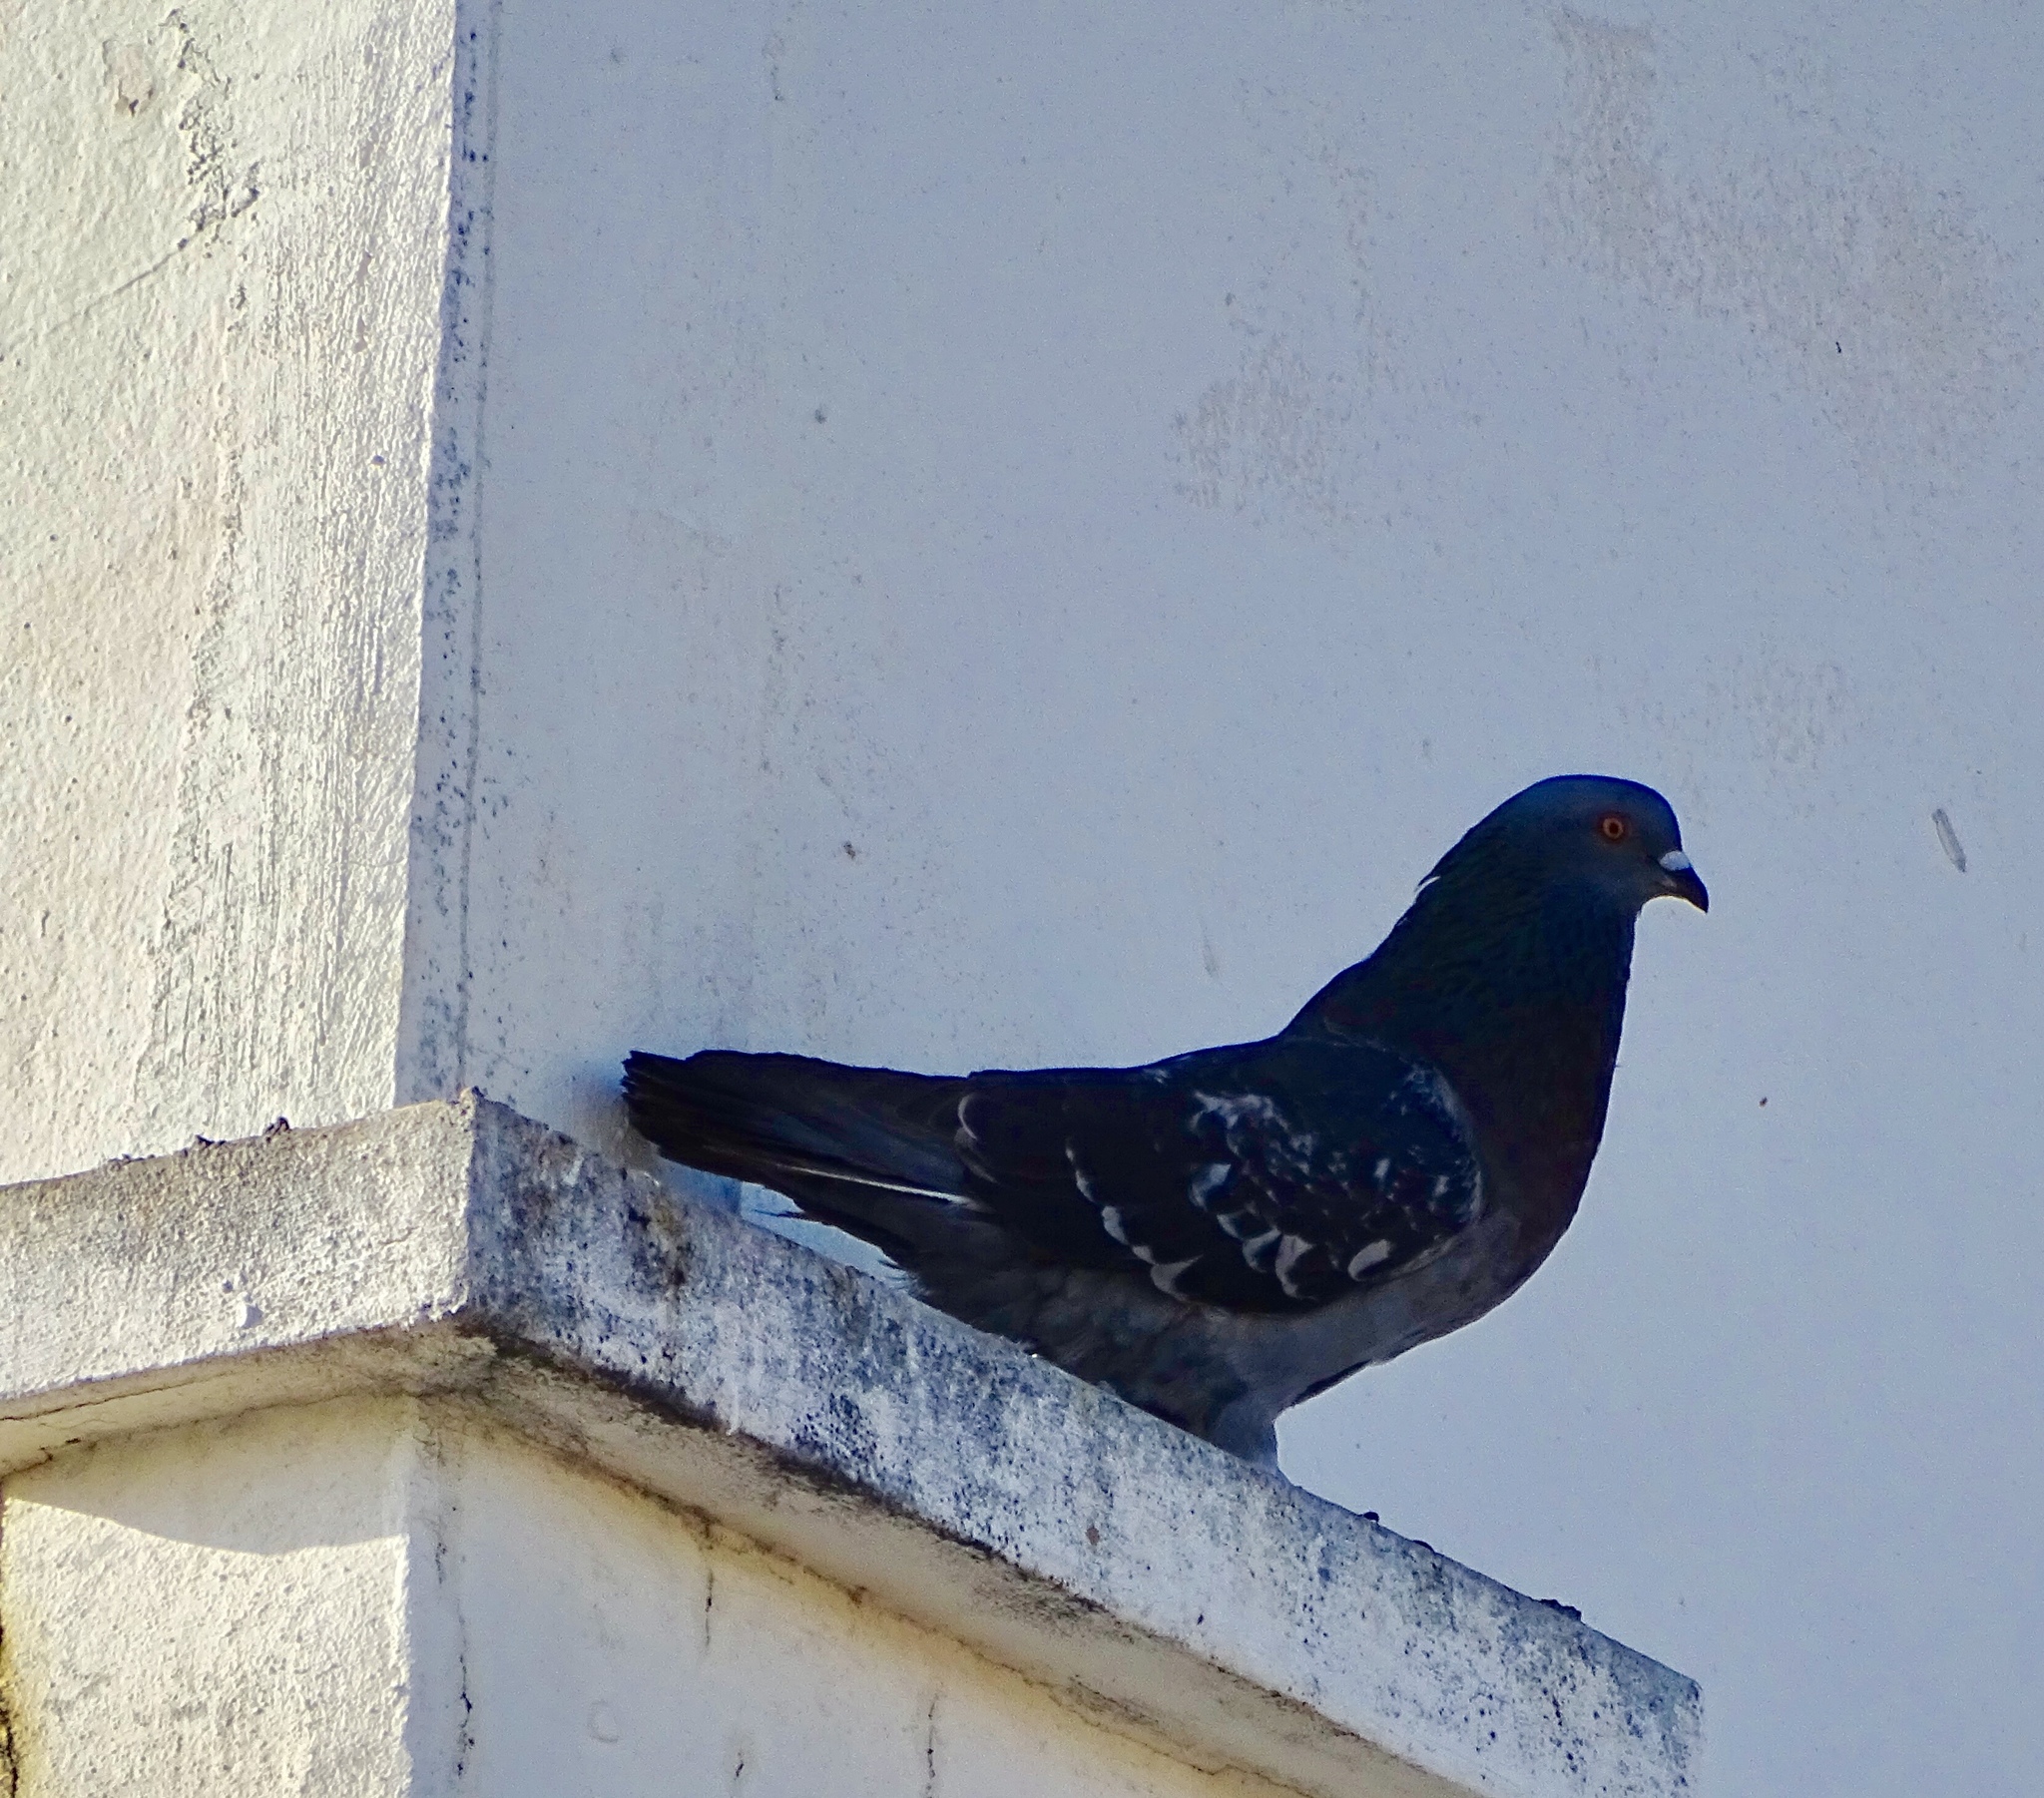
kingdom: Animalia
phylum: Chordata
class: Aves
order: Columbiformes
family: Columbidae
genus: Columba
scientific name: Columba livia
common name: Rock pigeon
